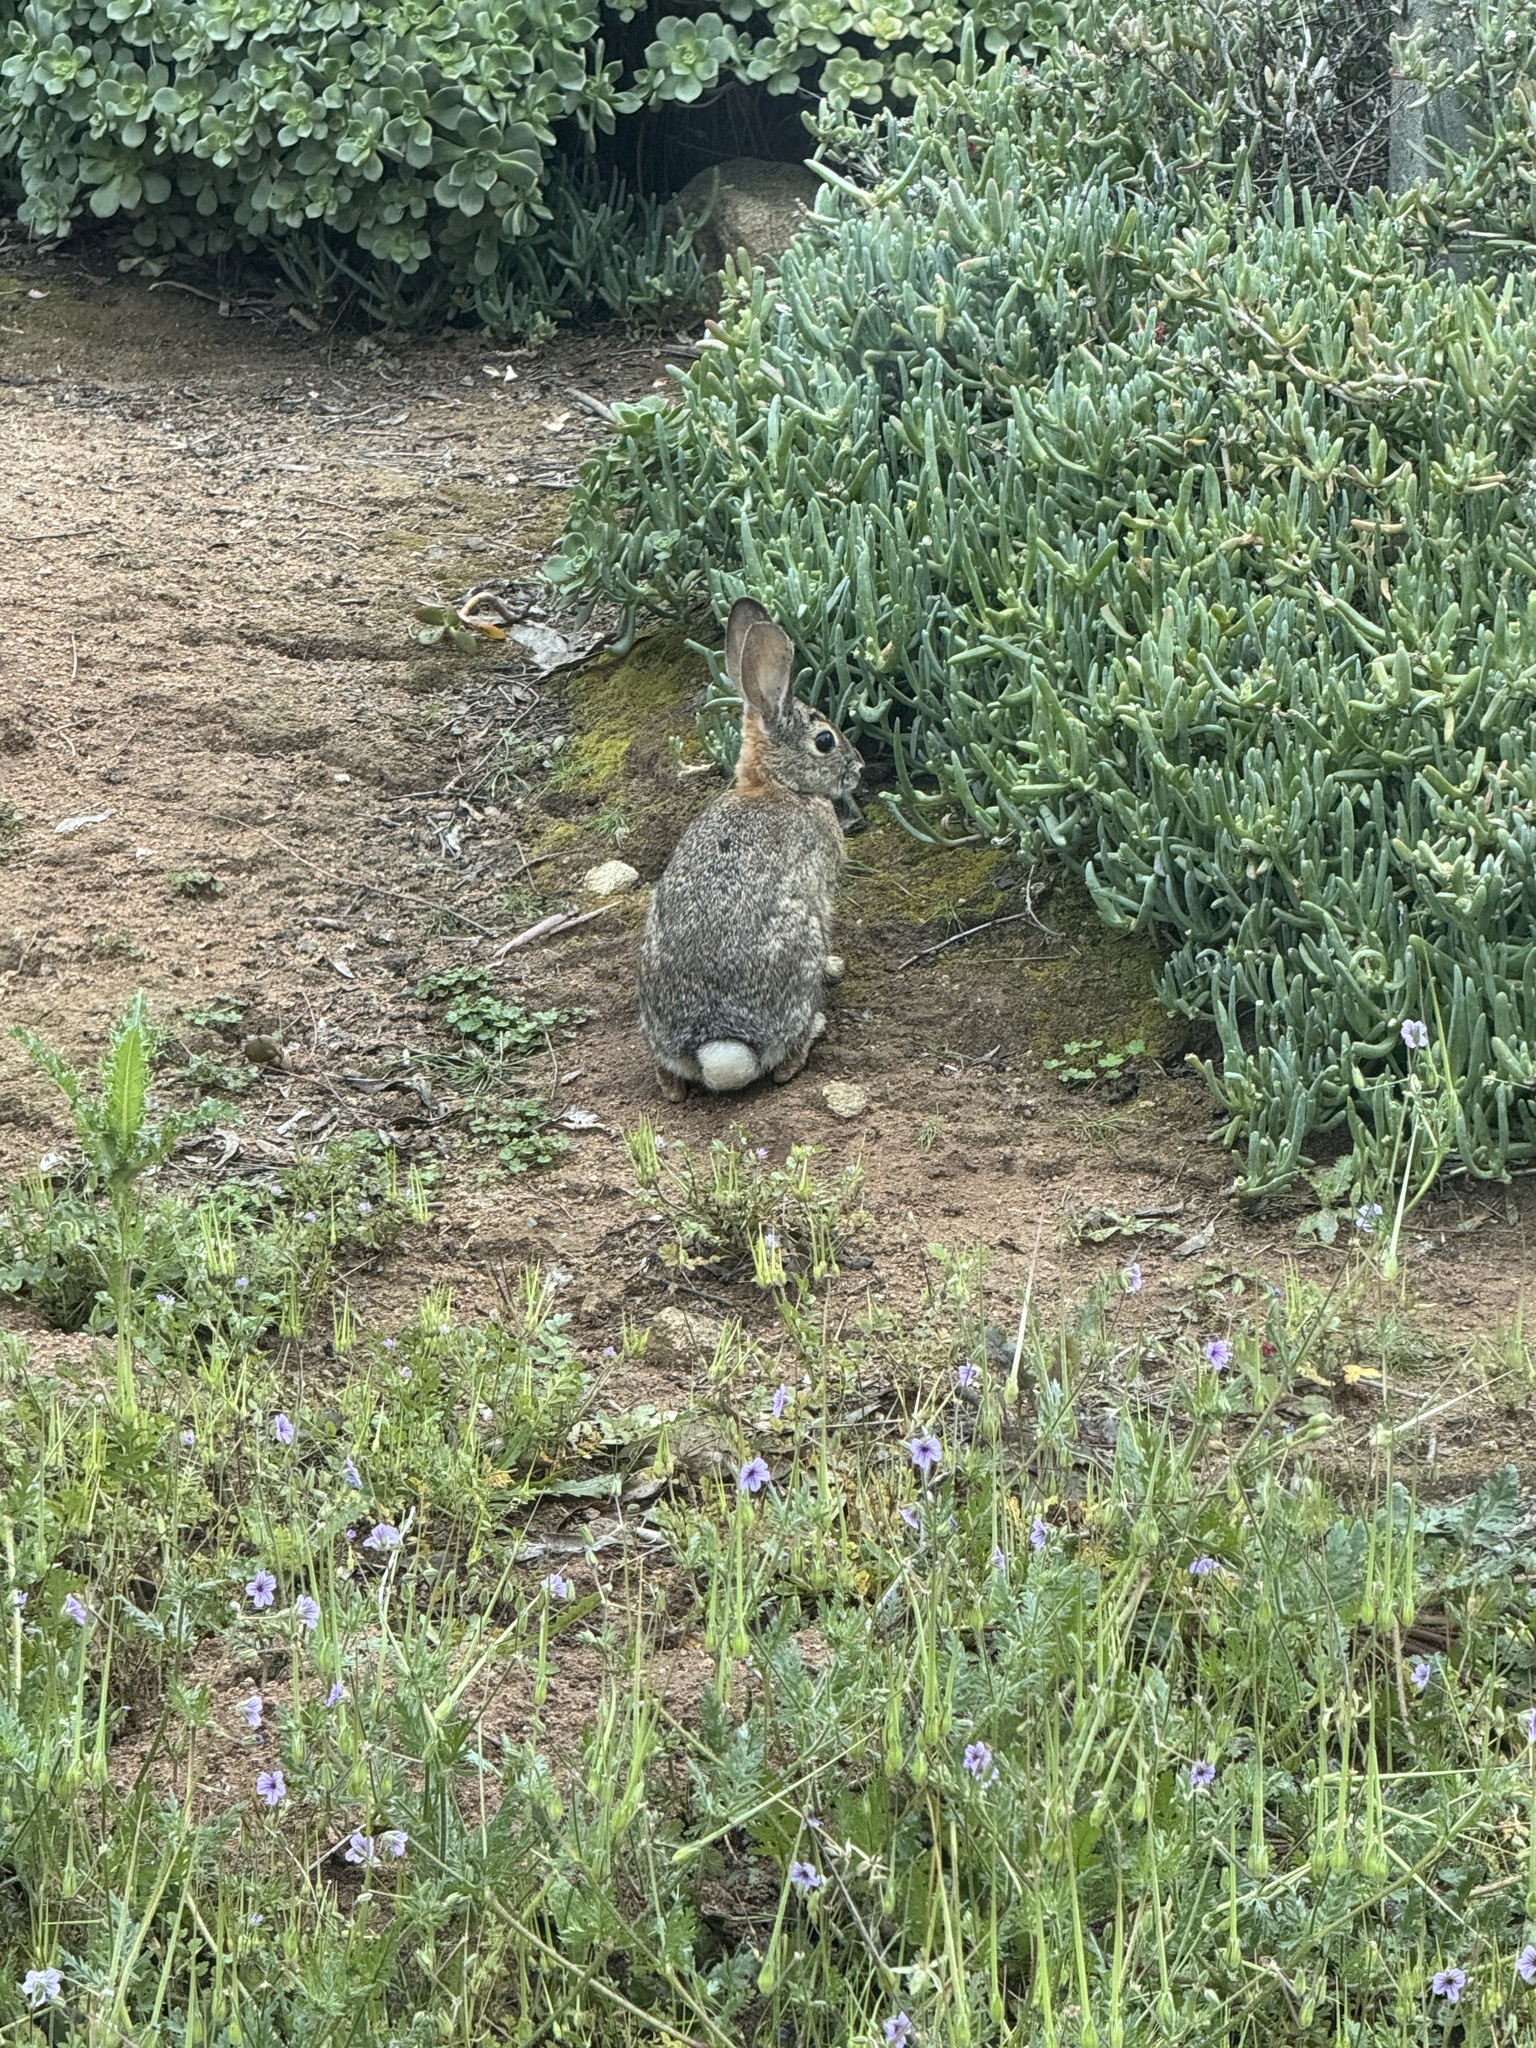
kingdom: Animalia
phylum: Chordata
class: Mammalia
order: Lagomorpha
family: Leporidae
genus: Sylvilagus
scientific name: Sylvilagus audubonii
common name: Desert cottontail
